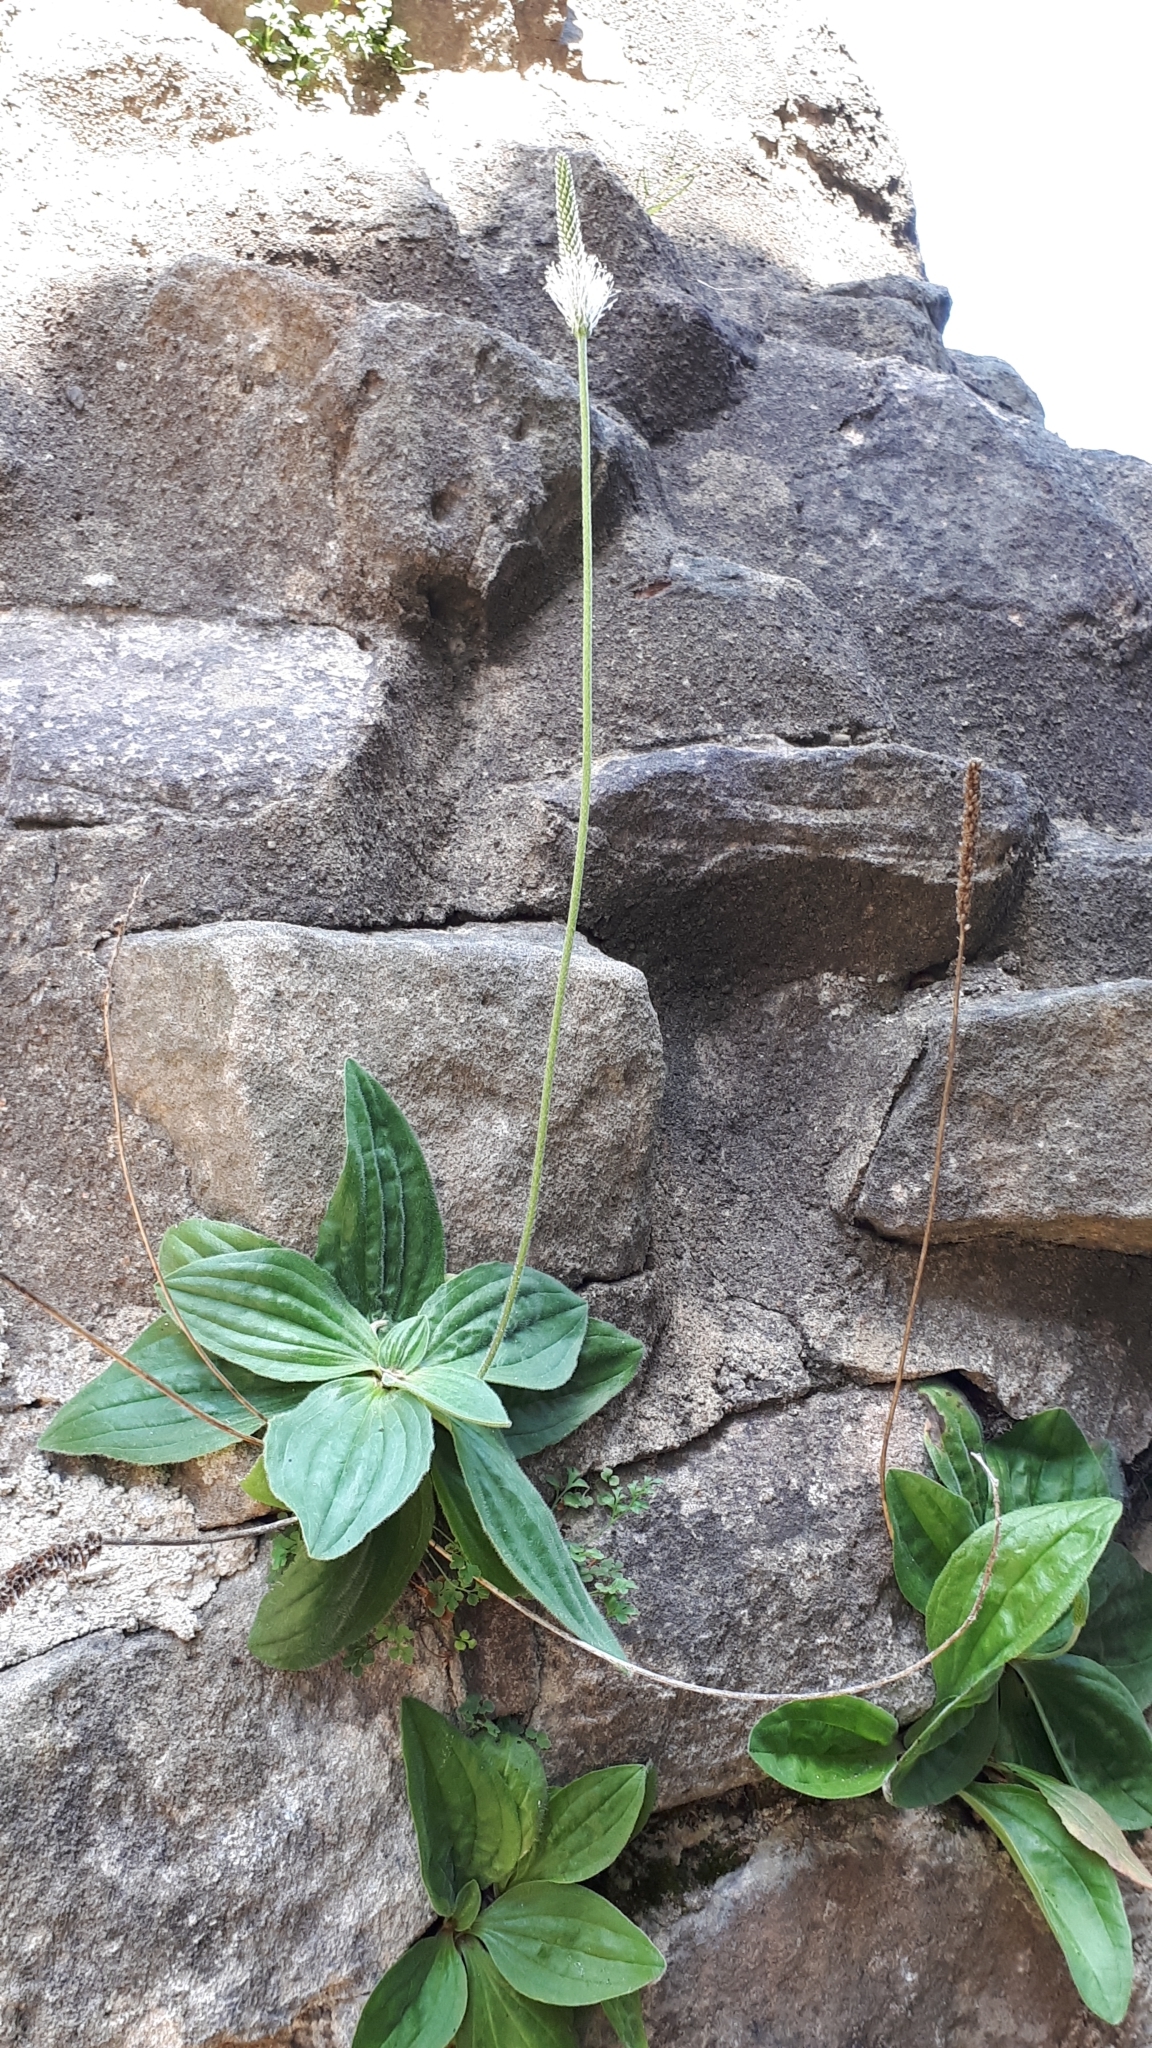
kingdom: Plantae
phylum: Tracheophyta
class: Magnoliopsida
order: Lamiales
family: Plantaginaceae
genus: Plantago
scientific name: Plantago media
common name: Hoary plantain
